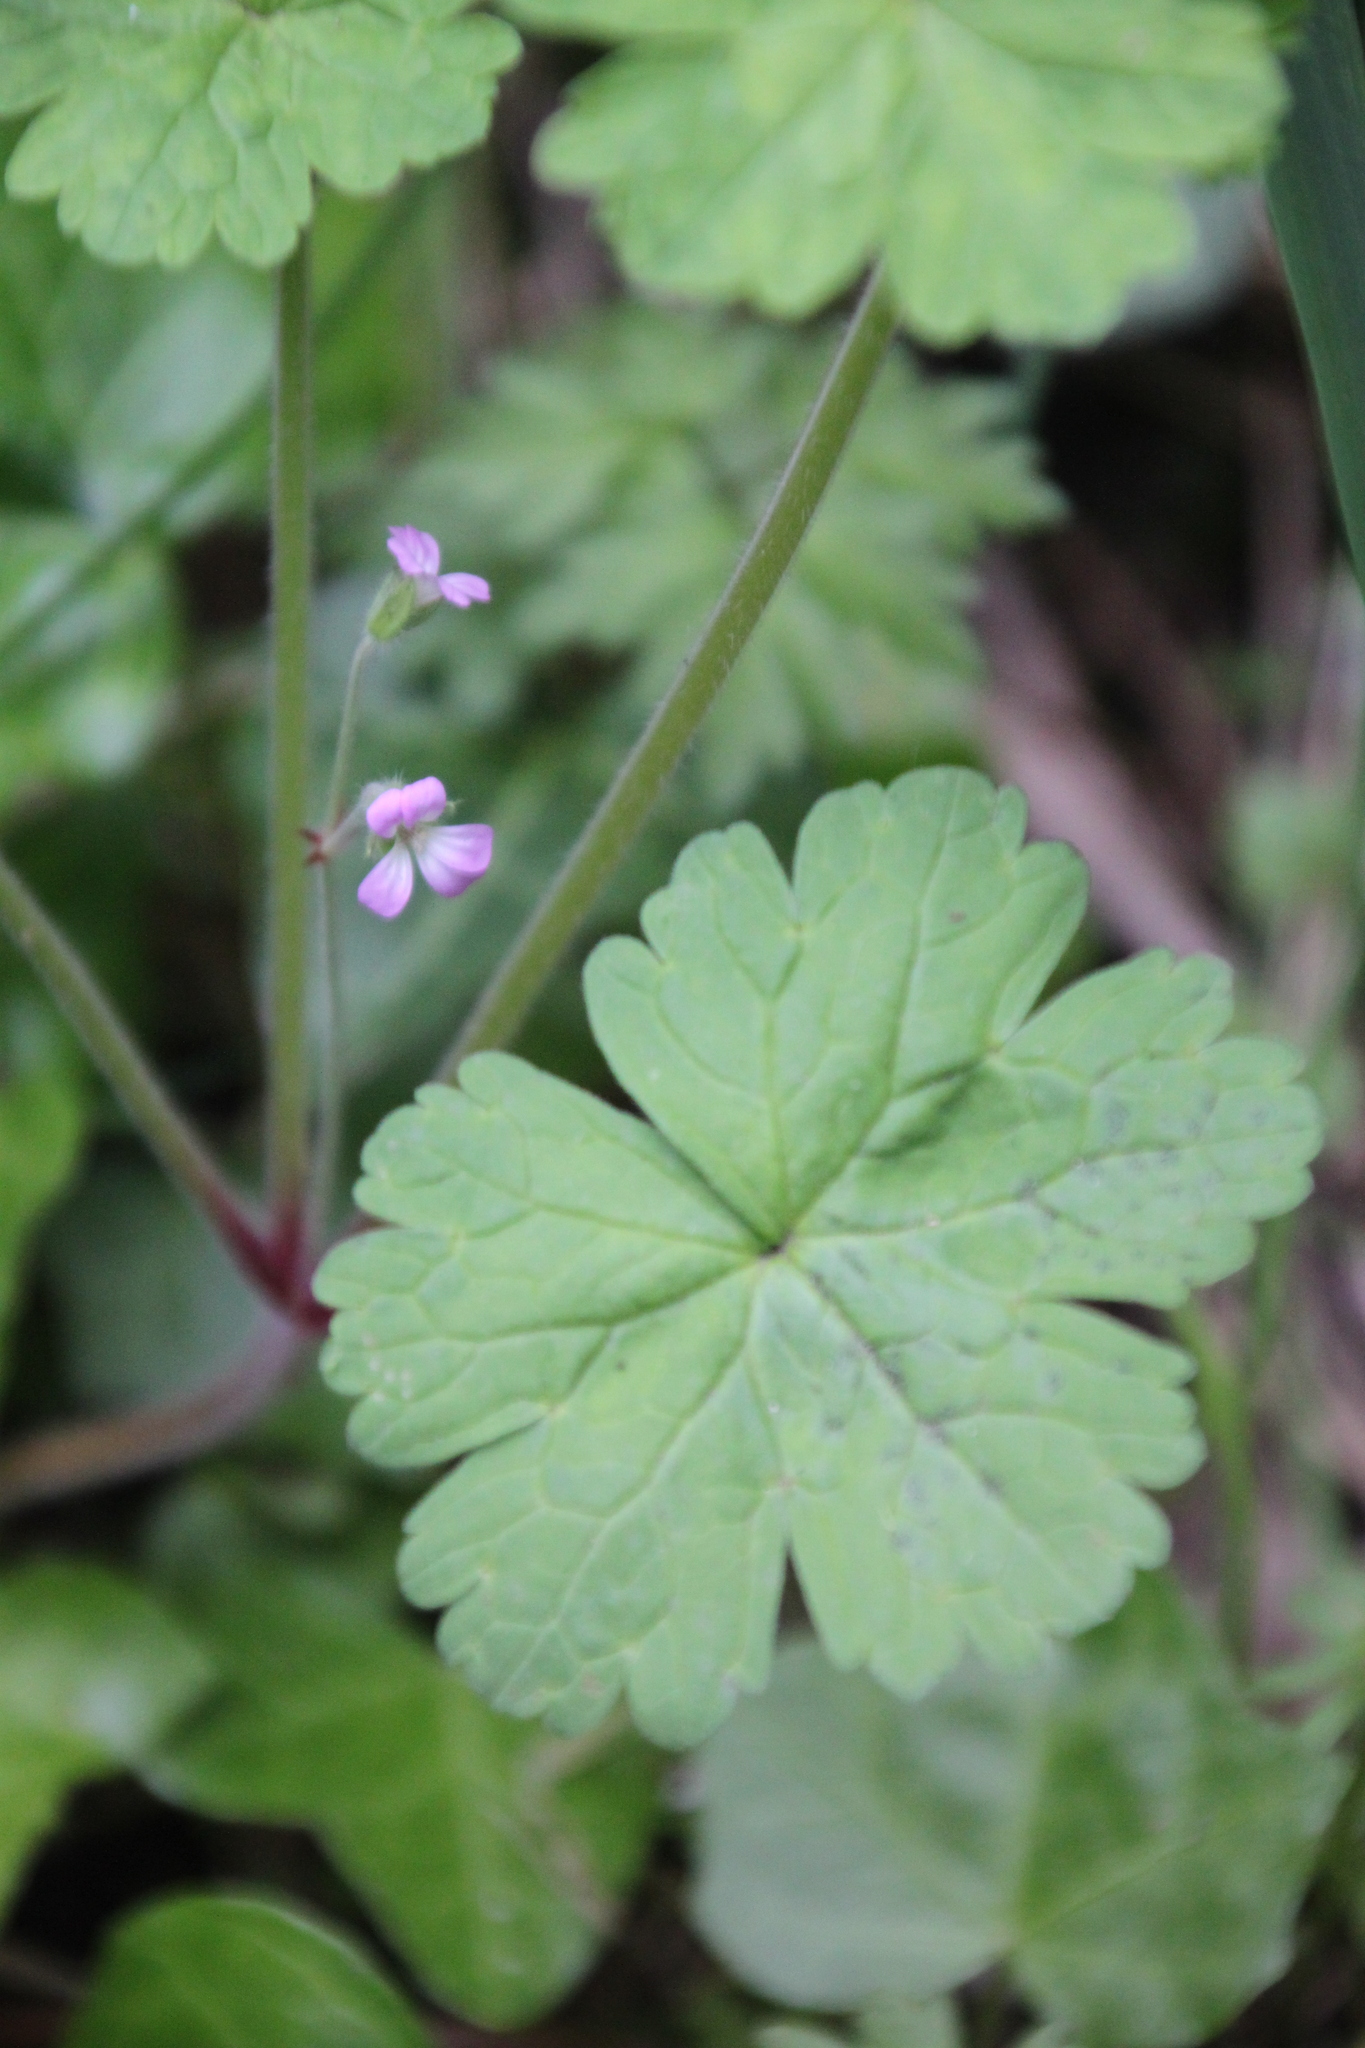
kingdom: Plantae
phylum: Tracheophyta
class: Magnoliopsida
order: Geraniales
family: Geraniaceae
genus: Geranium
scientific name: Geranium rotundifolium
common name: Round-leaved crane's-bill
